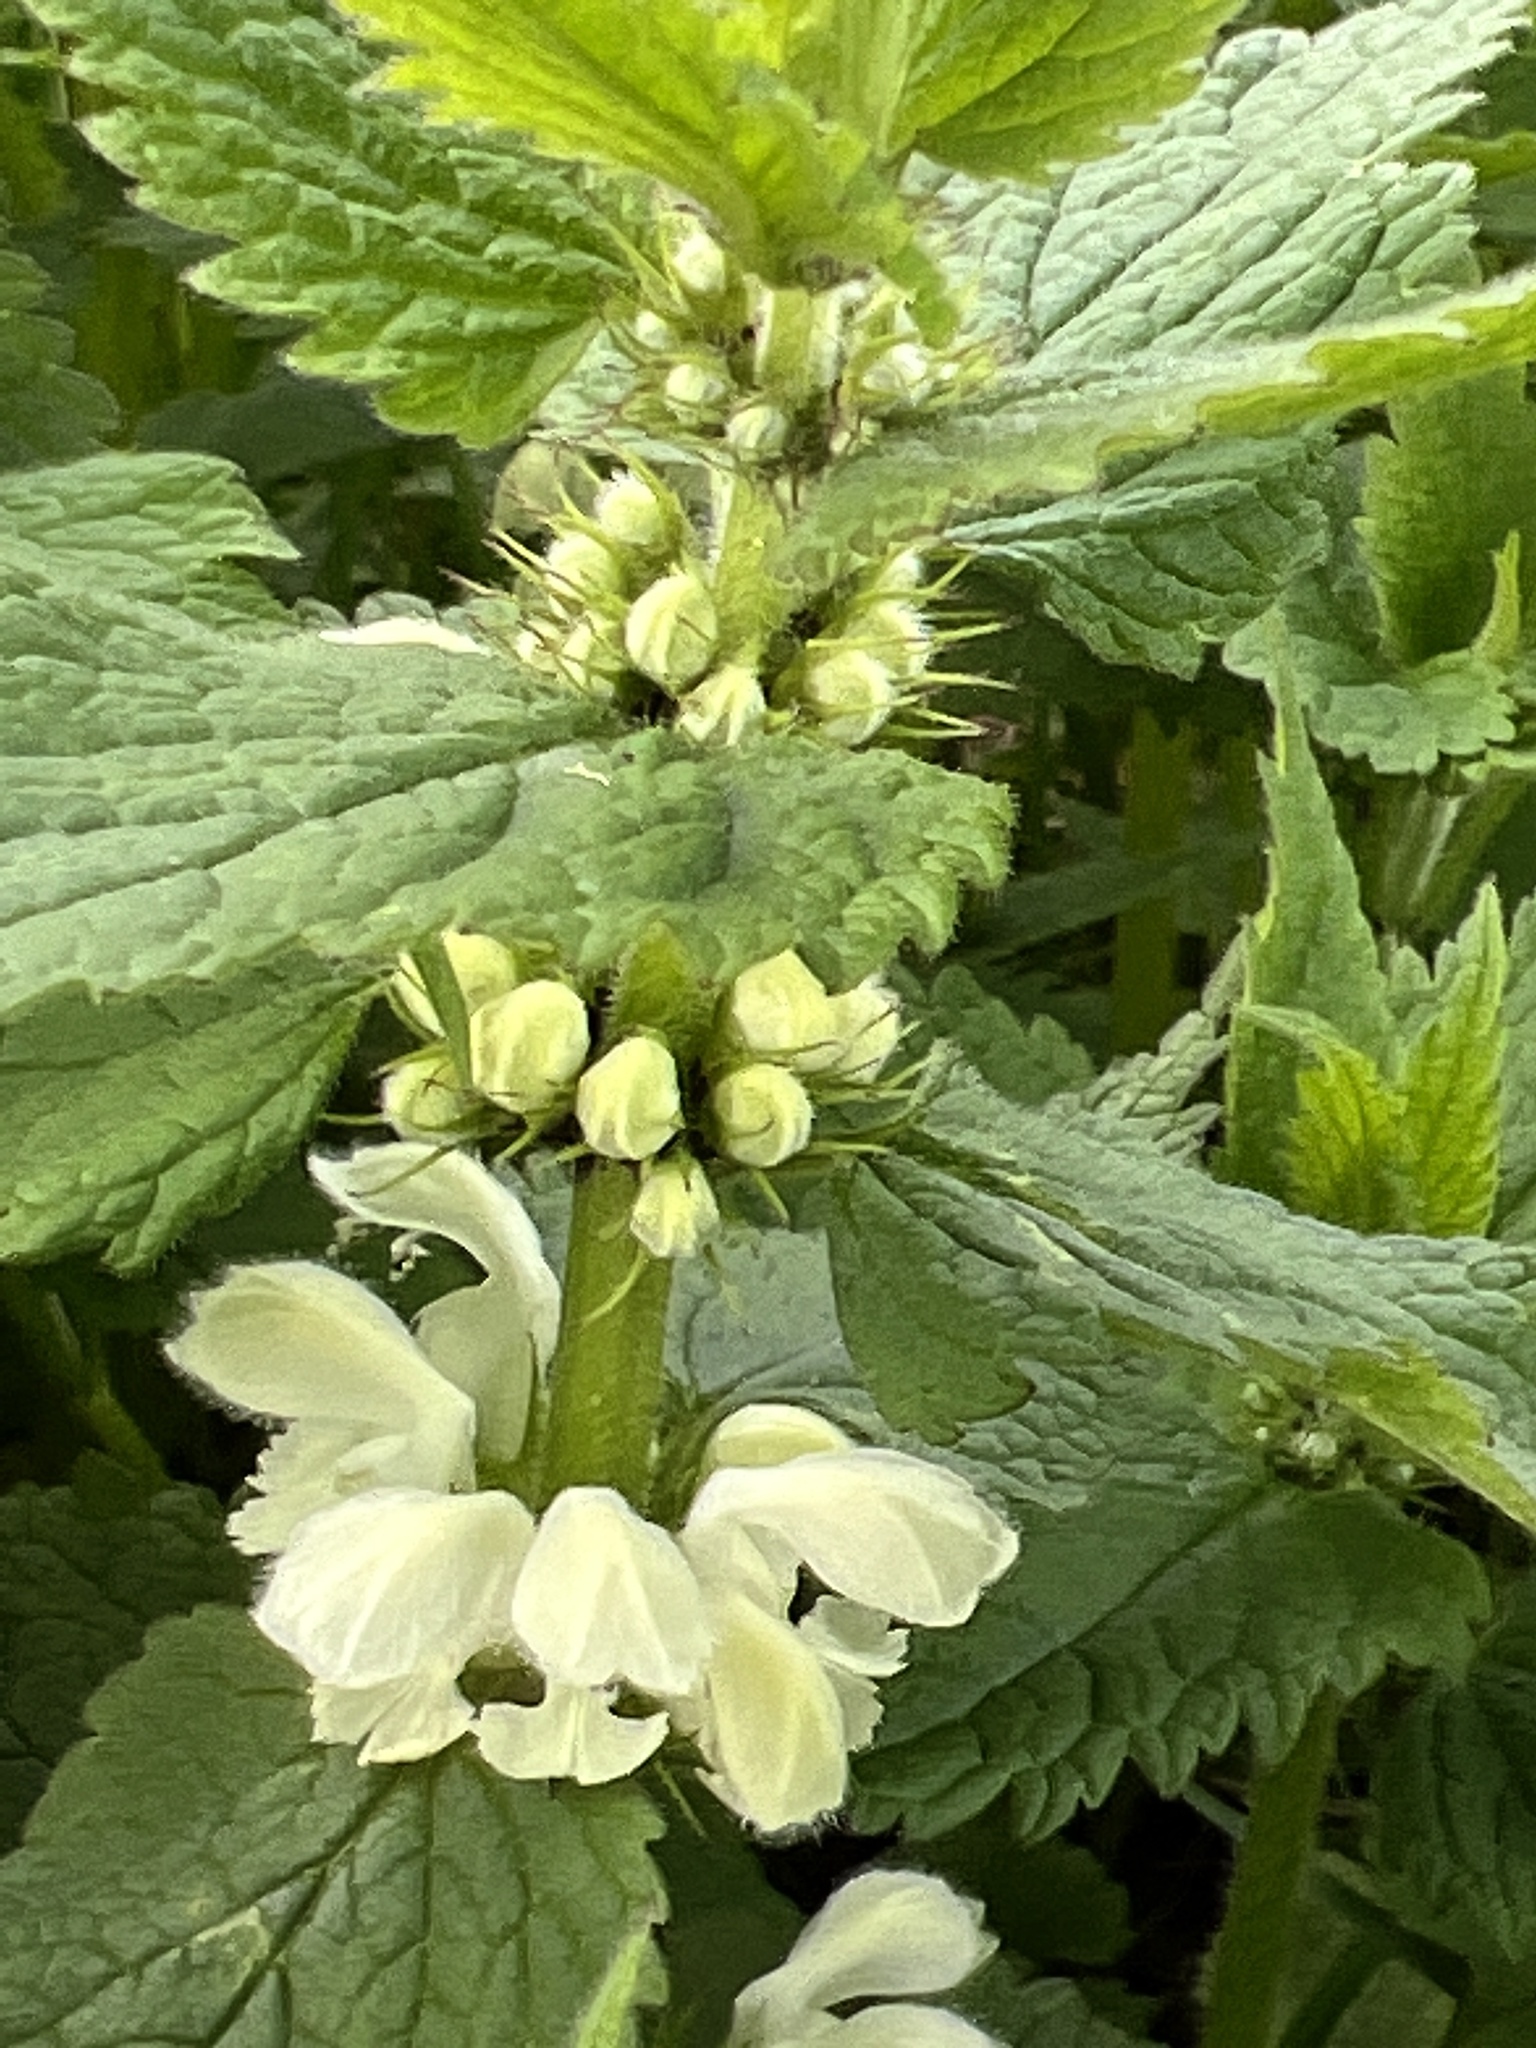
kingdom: Plantae
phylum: Tracheophyta
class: Magnoliopsida
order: Lamiales
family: Lamiaceae
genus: Lamium
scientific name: Lamium album
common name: White dead-nettle
